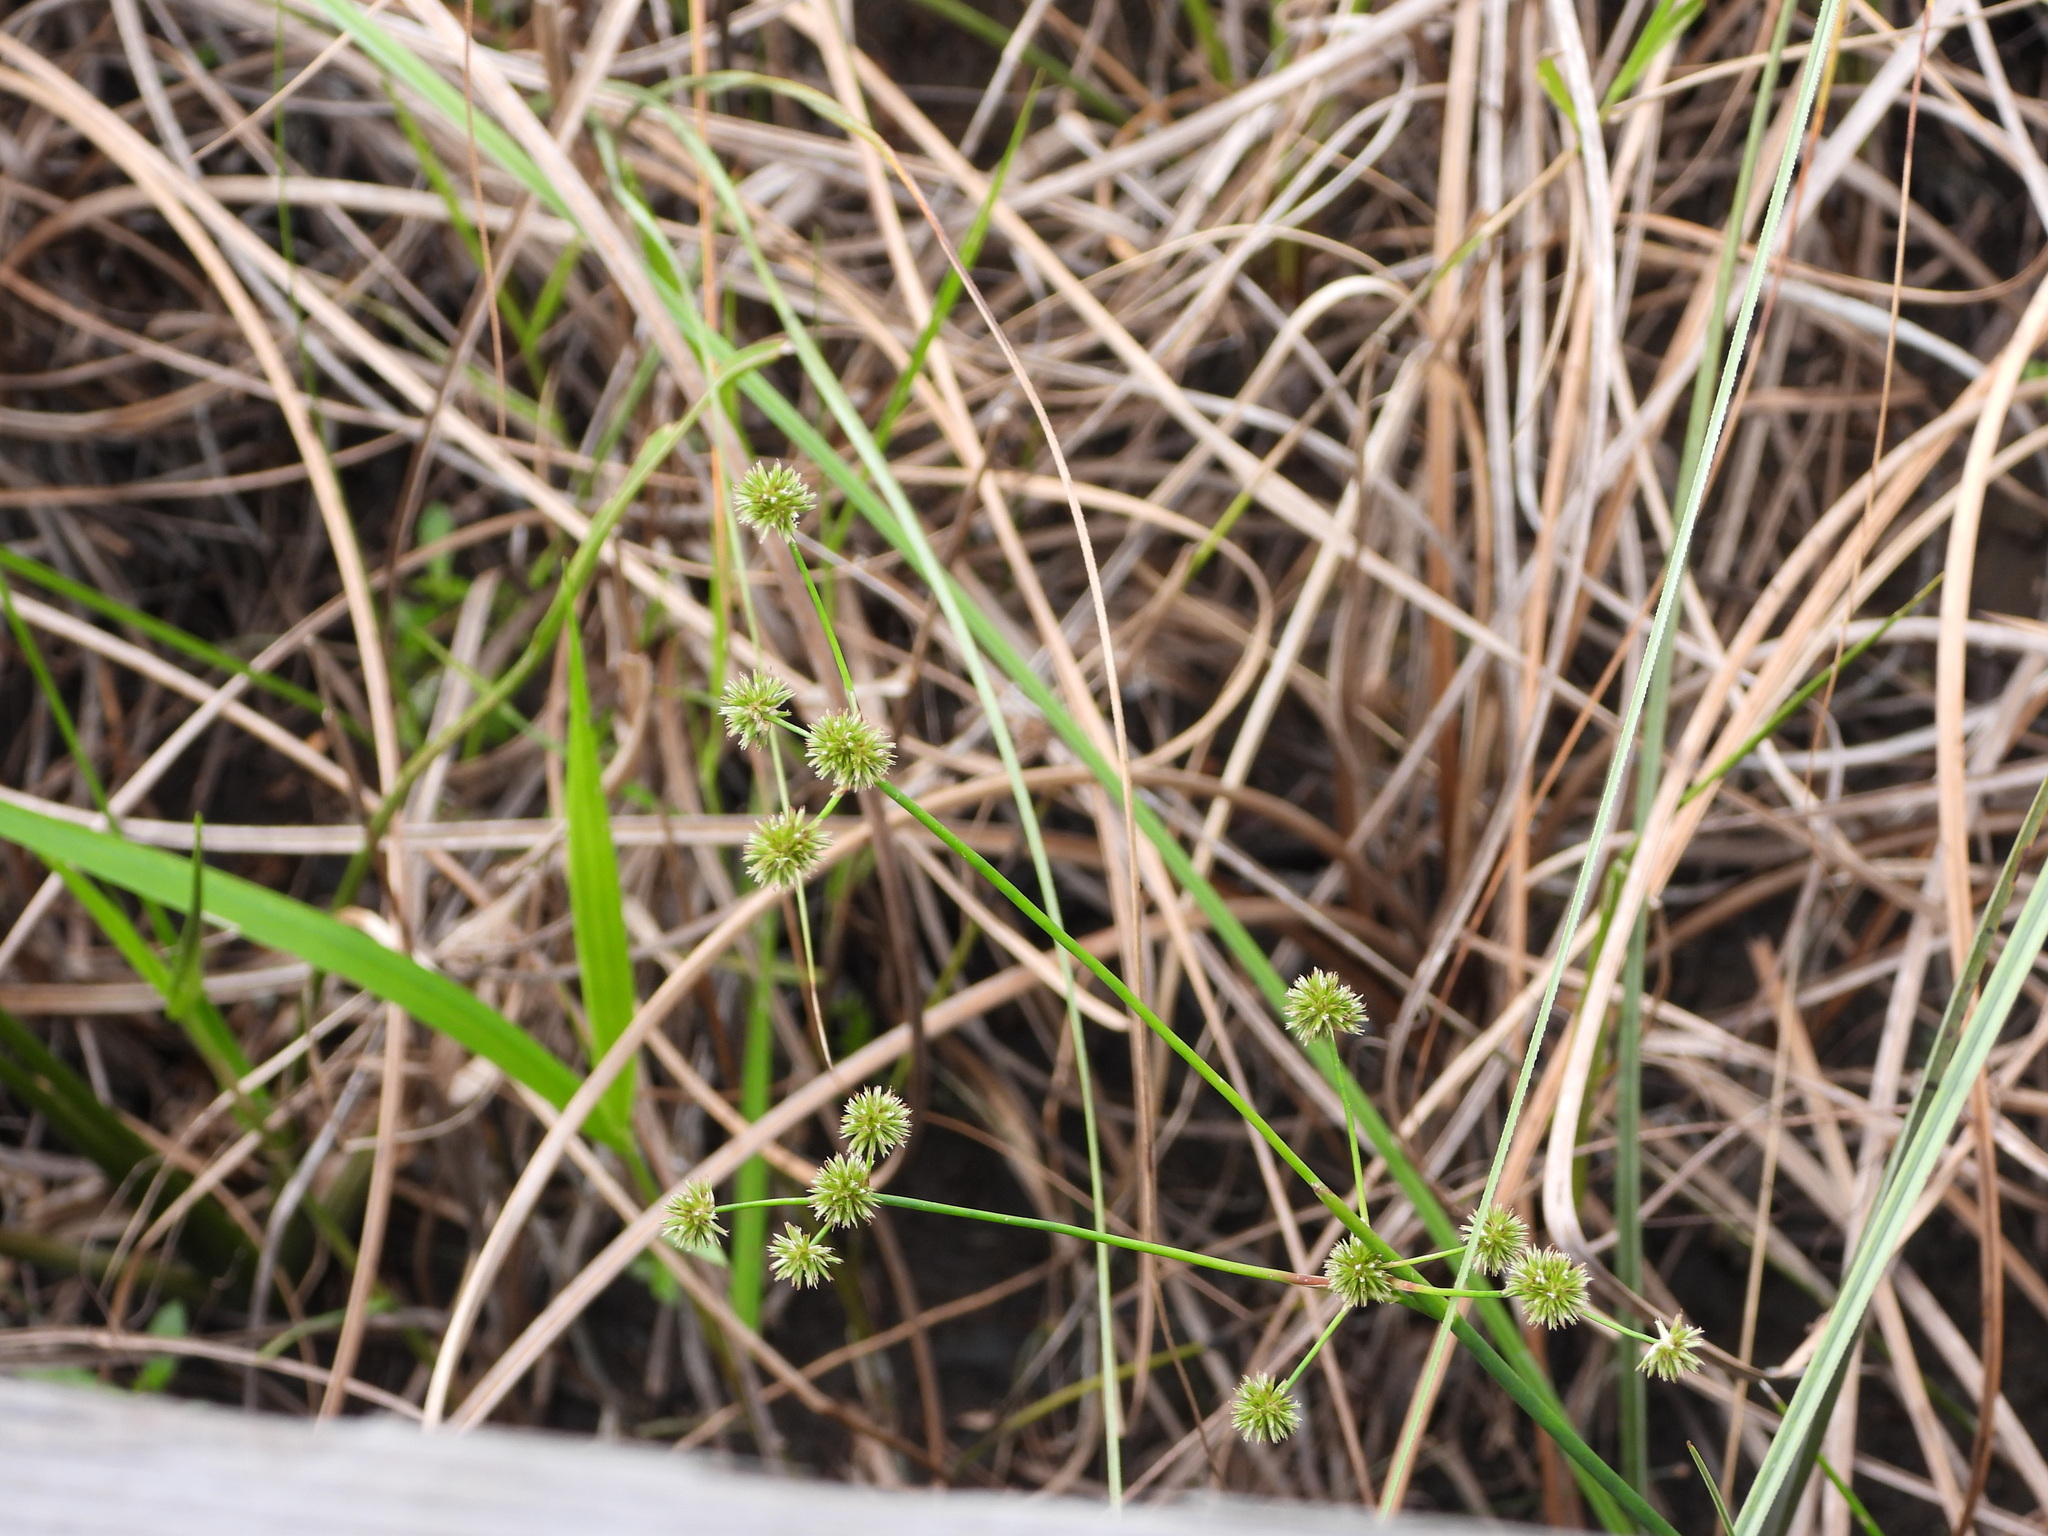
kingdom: Plantae
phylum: Tracheophyta
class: Liliopsida
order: Poales
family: Juncaceae
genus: Juncus
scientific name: Juncus paludosus
